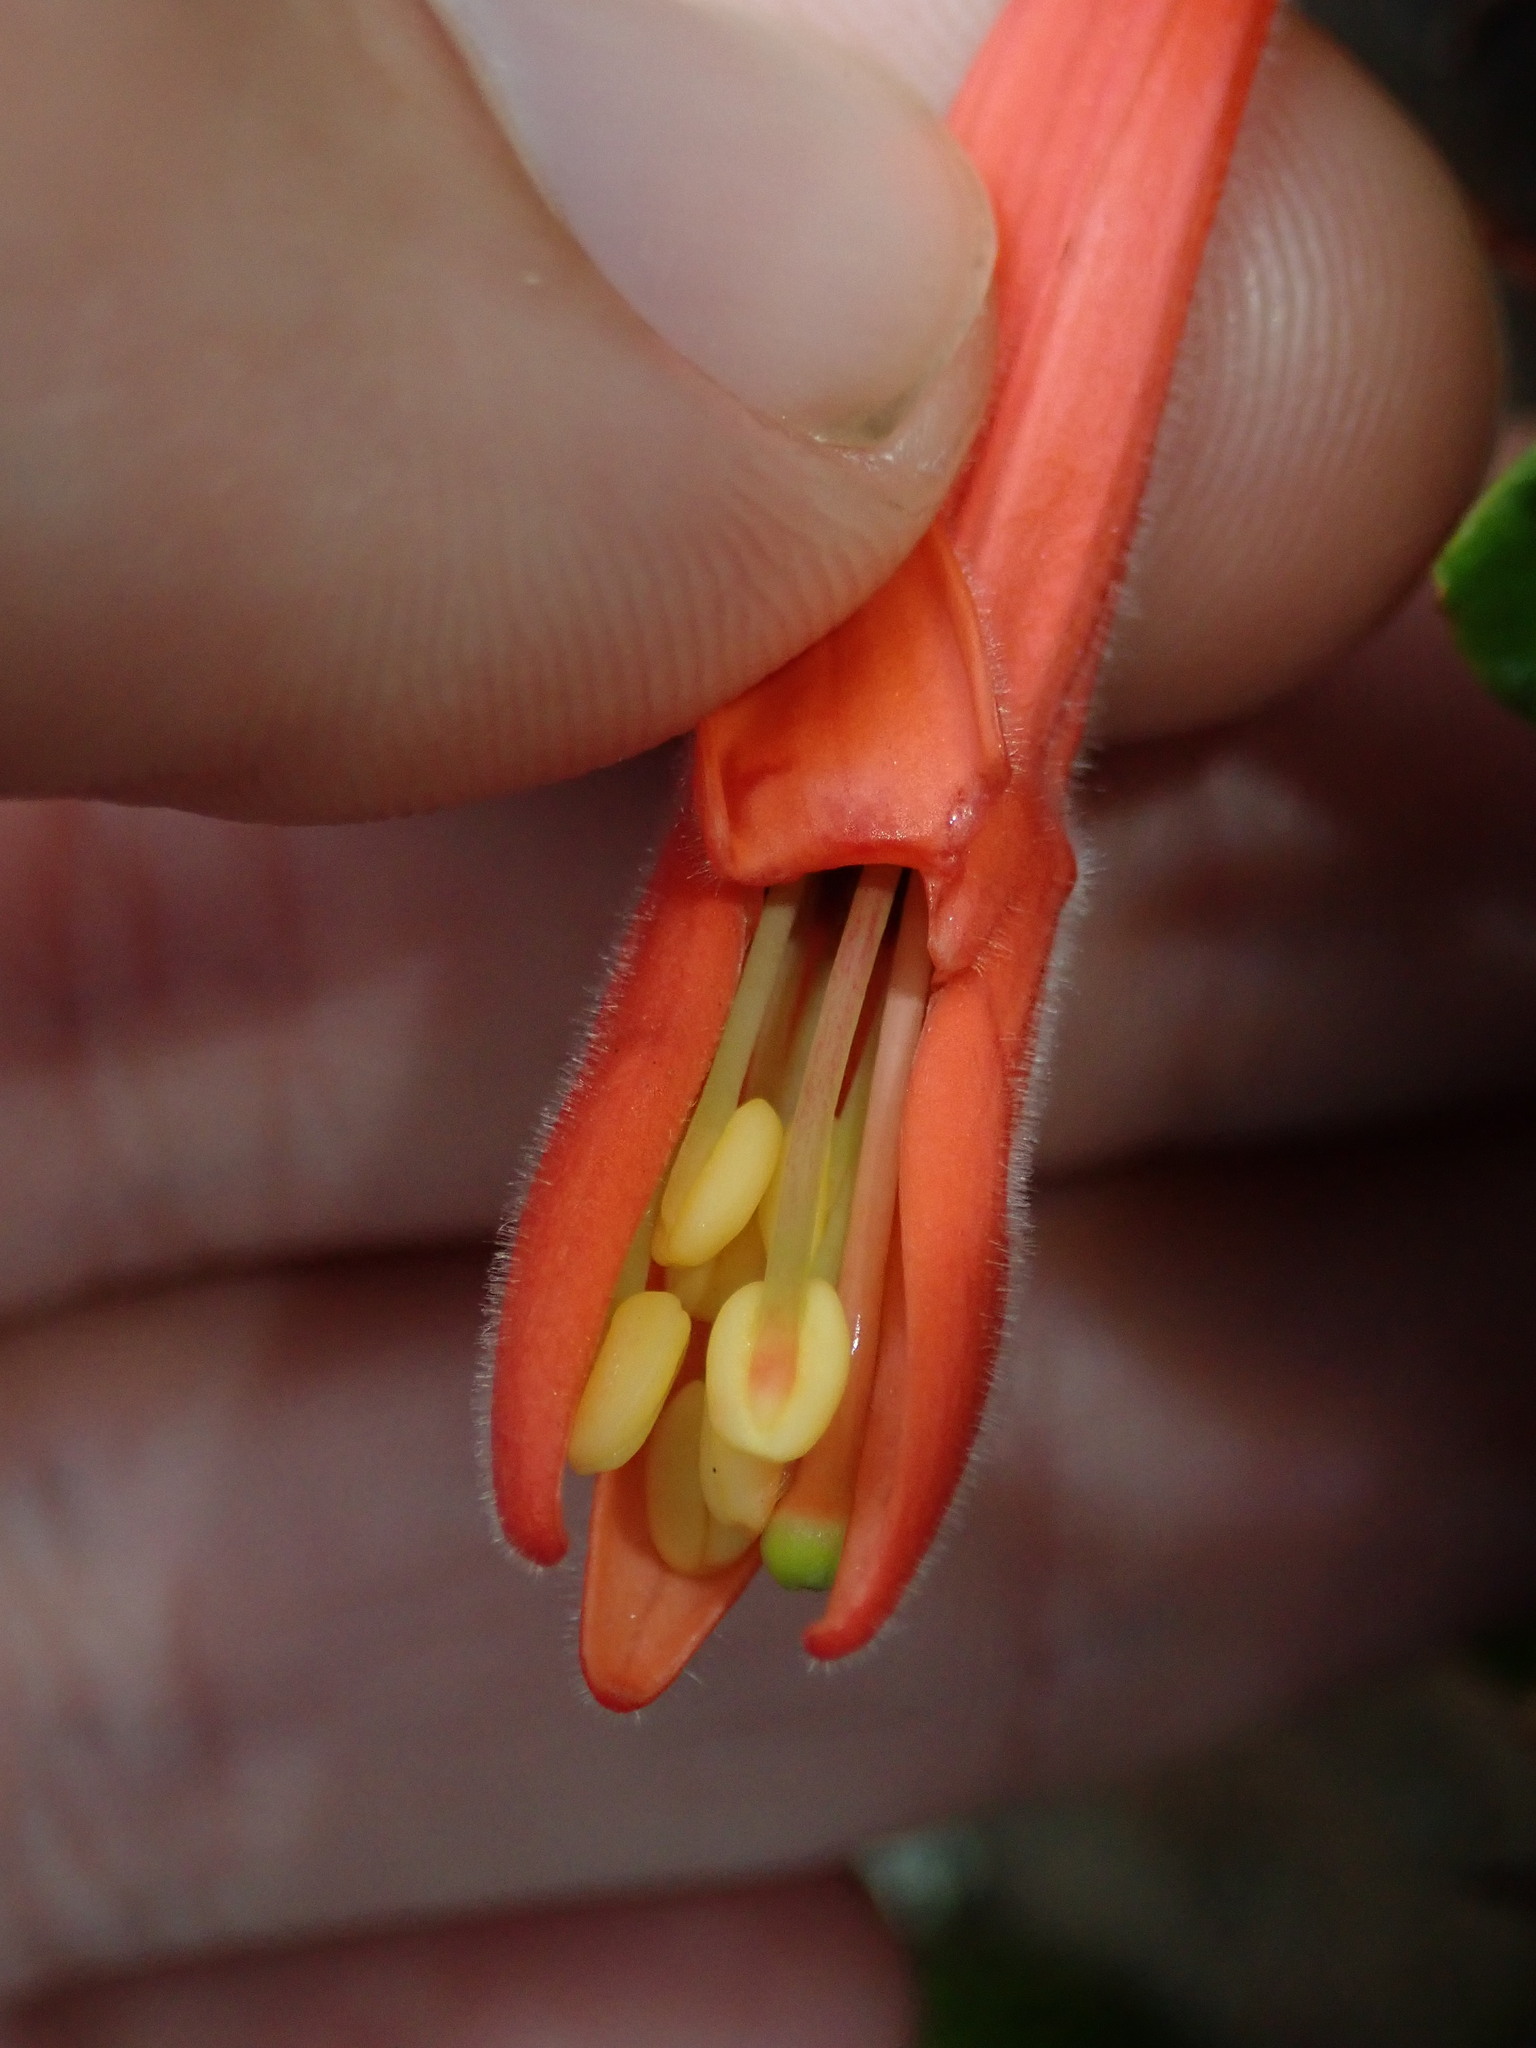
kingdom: Plantae
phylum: Tracheophyta
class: Magnoliopsida
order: Myrtales
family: Onagraceae
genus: Fuchsia
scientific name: Fuchsia apetala
